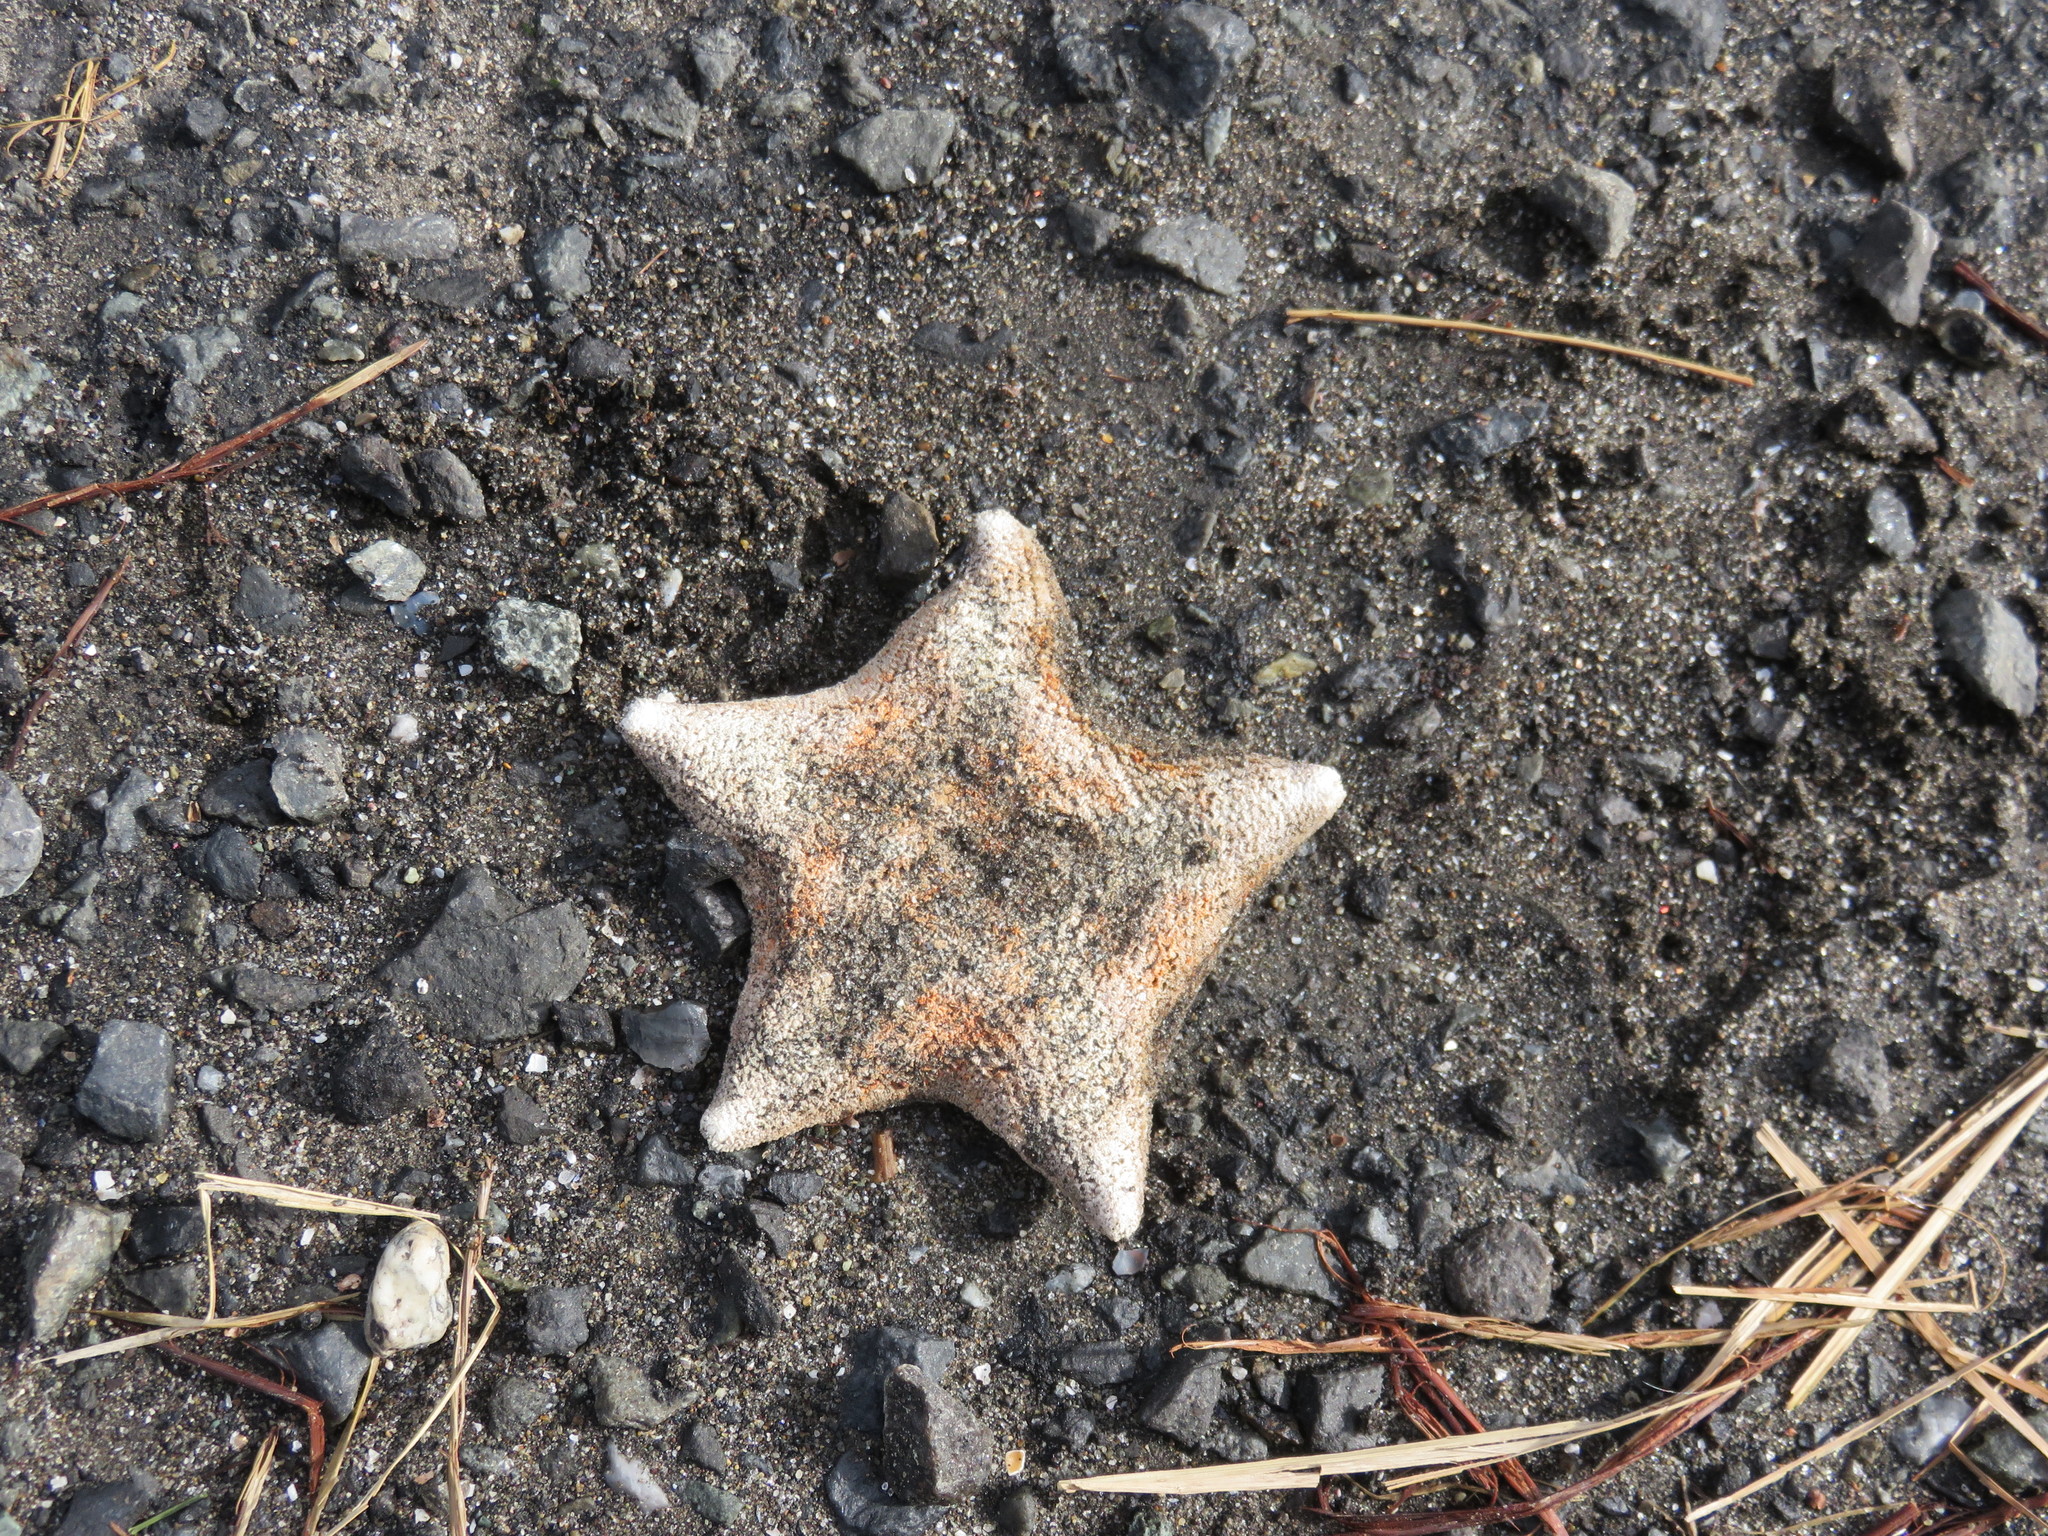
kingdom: Animalia
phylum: Echinodermata
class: Asteroidea
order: Valvatida
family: Asterinidae
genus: Patiria
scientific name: Patiria pectinifera
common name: Blue bat star
